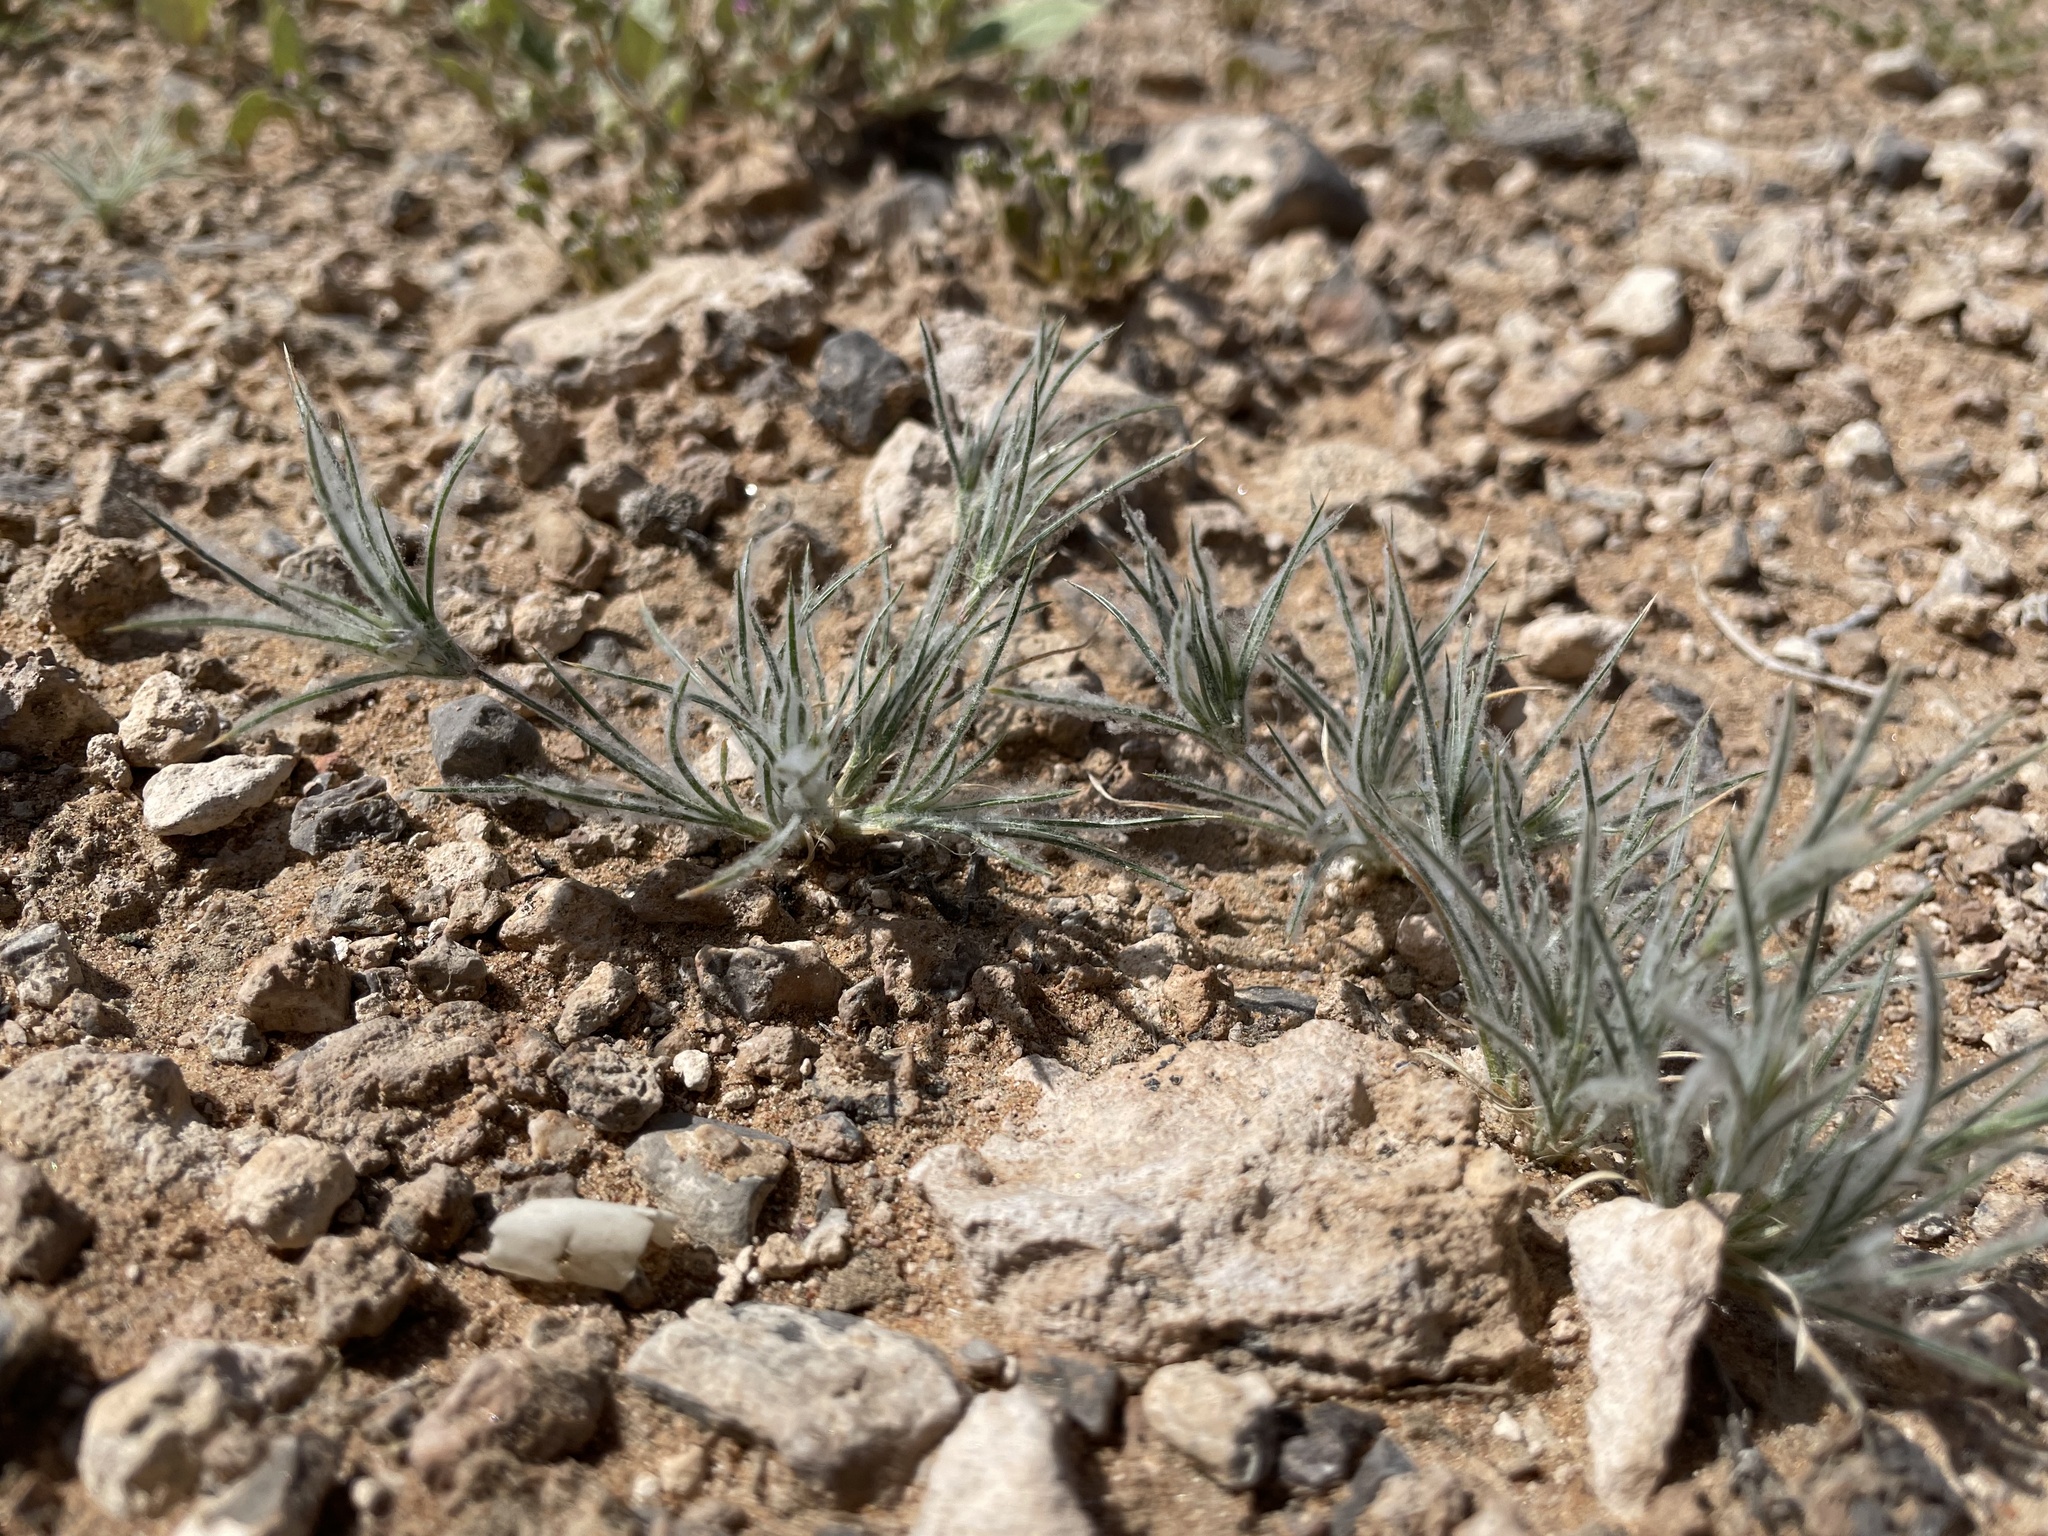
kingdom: Plantae
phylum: Tracheophyta
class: Liliopsida
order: Poales
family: Poaceae
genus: Dasyochloa
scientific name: Dasyochloa pulchella
